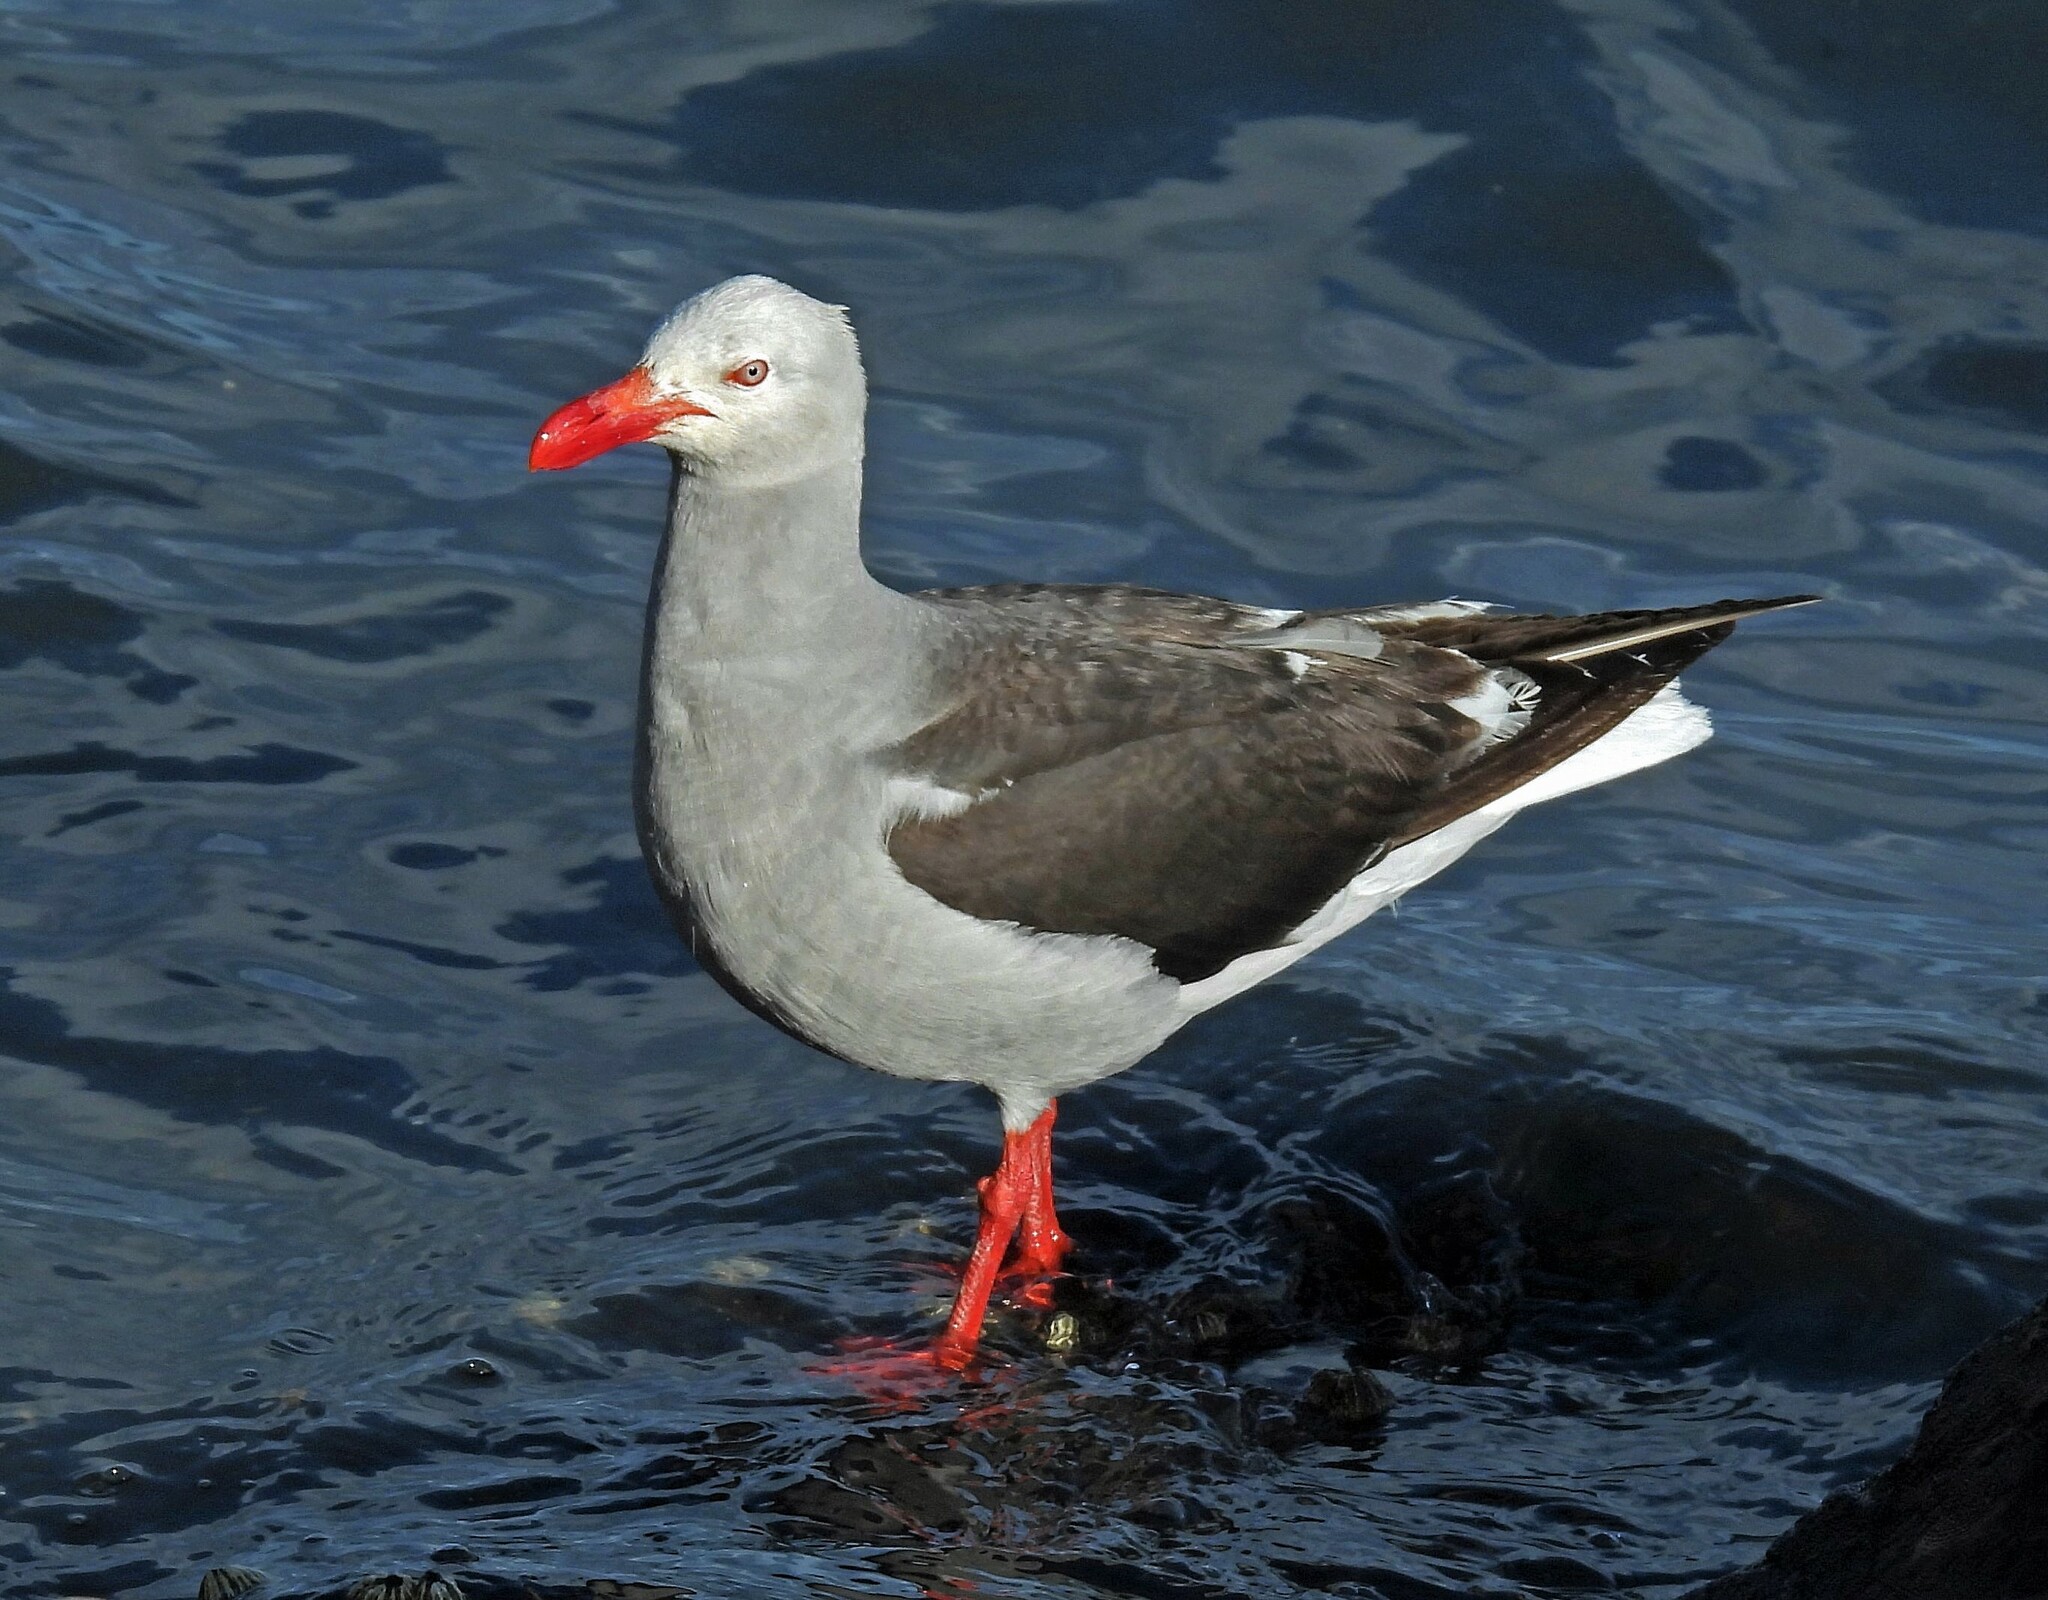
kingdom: Animalia
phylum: Chordata
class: Aves
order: Charadriiformes
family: Laridae
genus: Leucophaeus
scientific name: Leucophaeus scoresbii
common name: Dolphin gull
